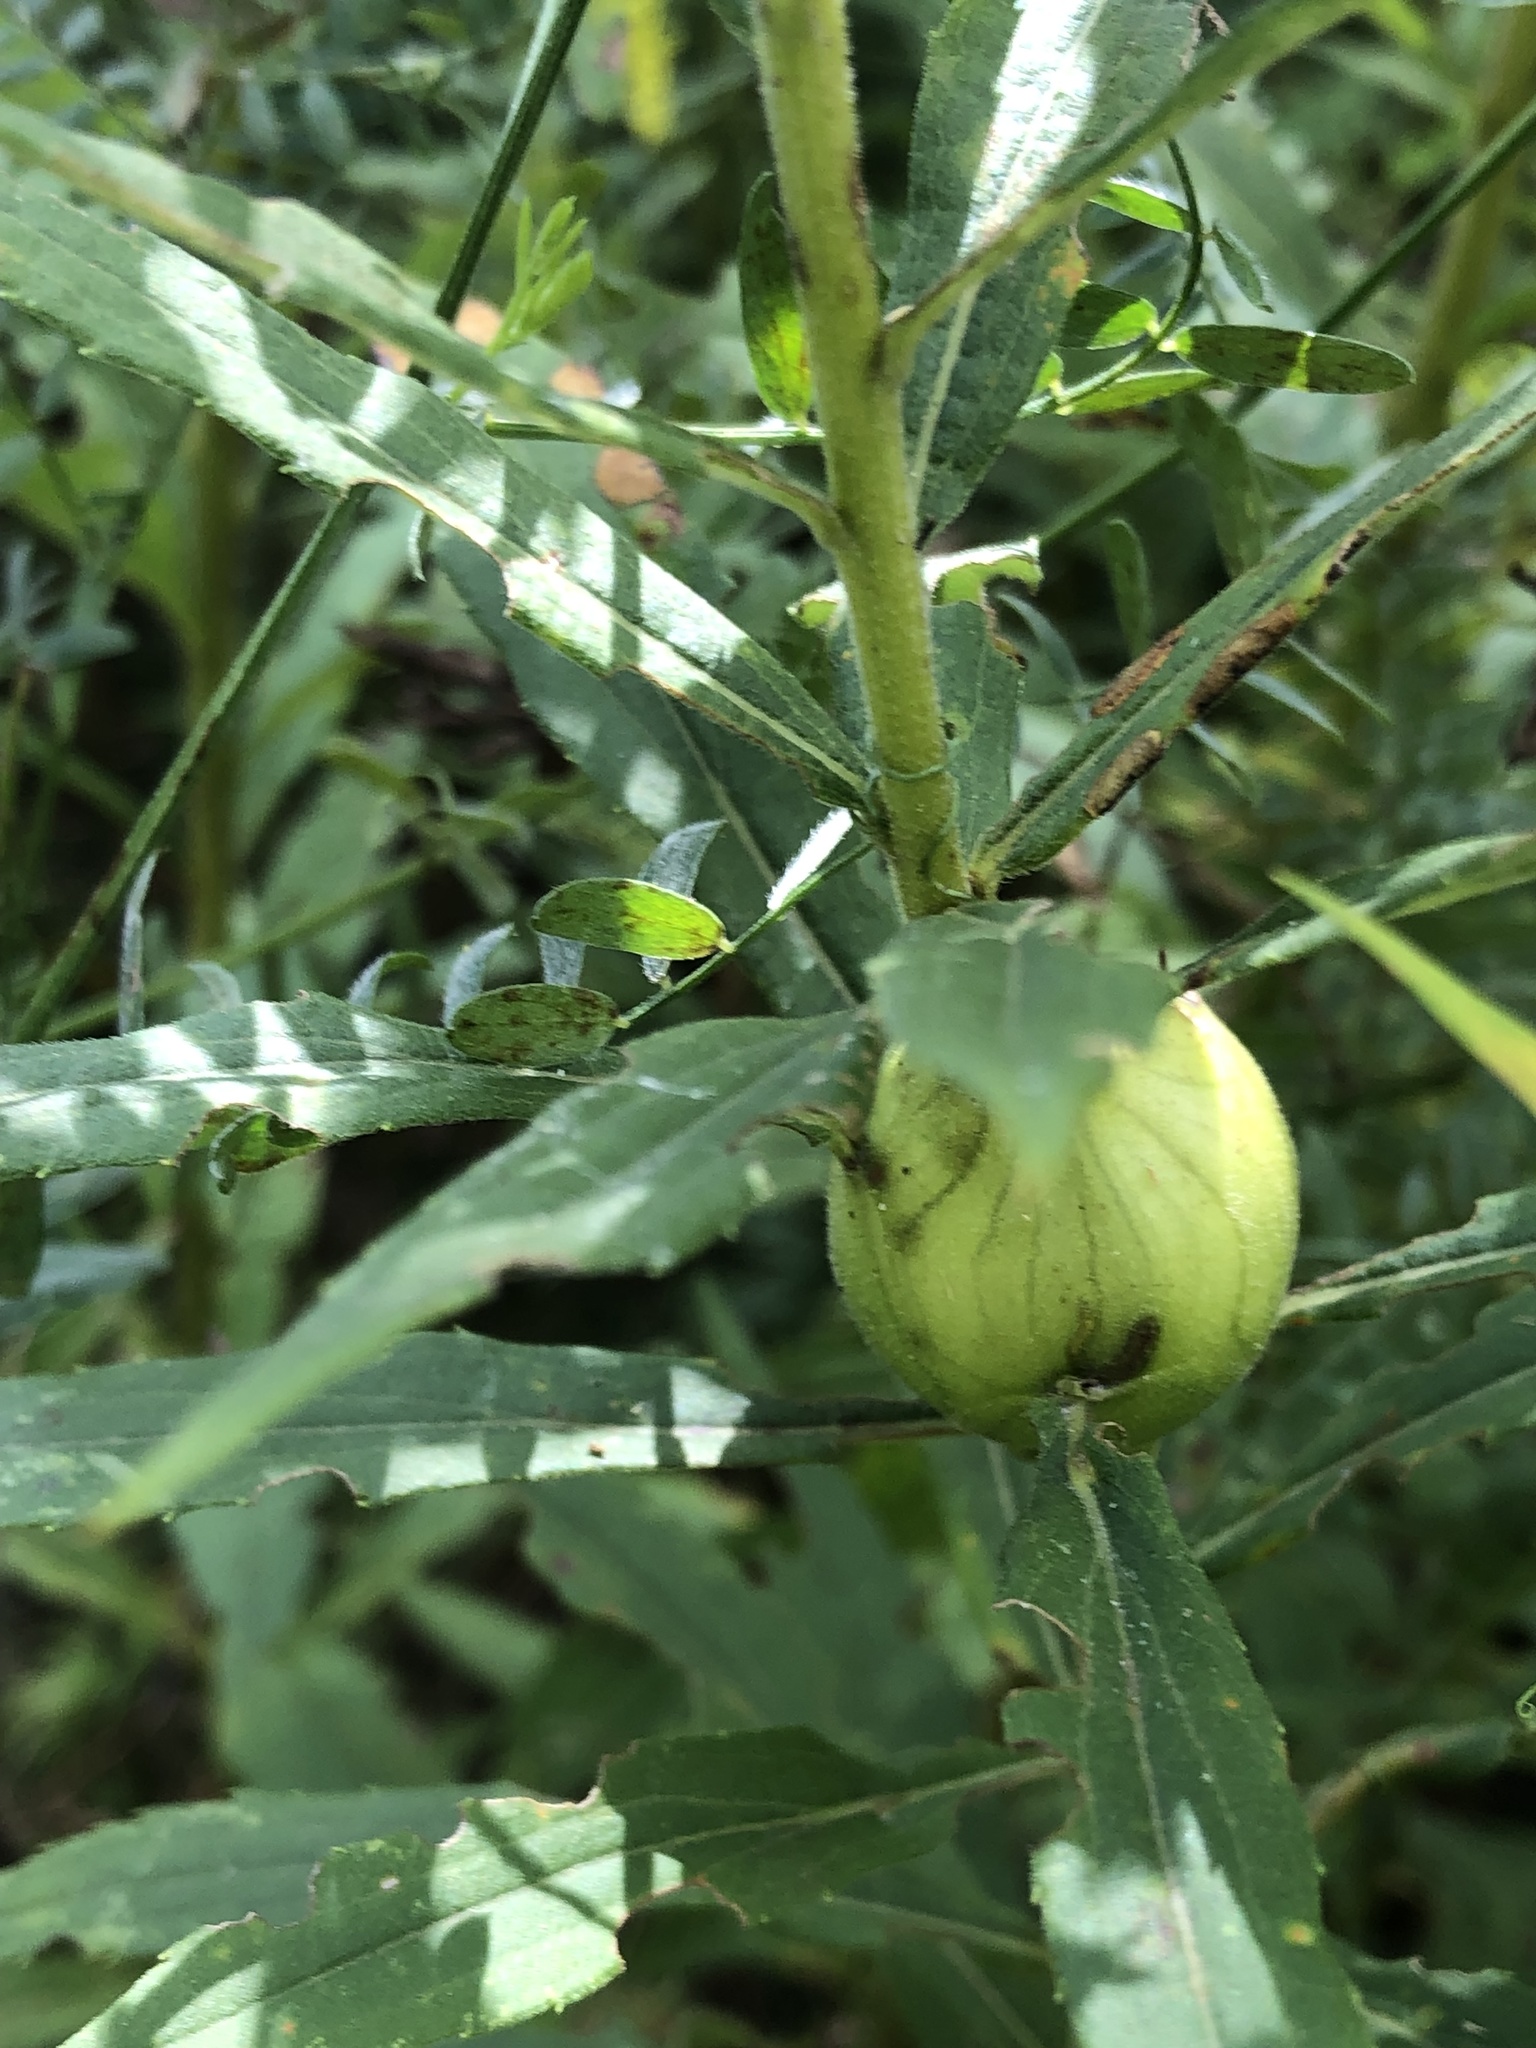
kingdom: Animalia
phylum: Arthropoda
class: Insecta
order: Diptera
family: Tephritidae
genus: Eurosta
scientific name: Eurosta solidaginis
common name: Goldenrod gall fly
